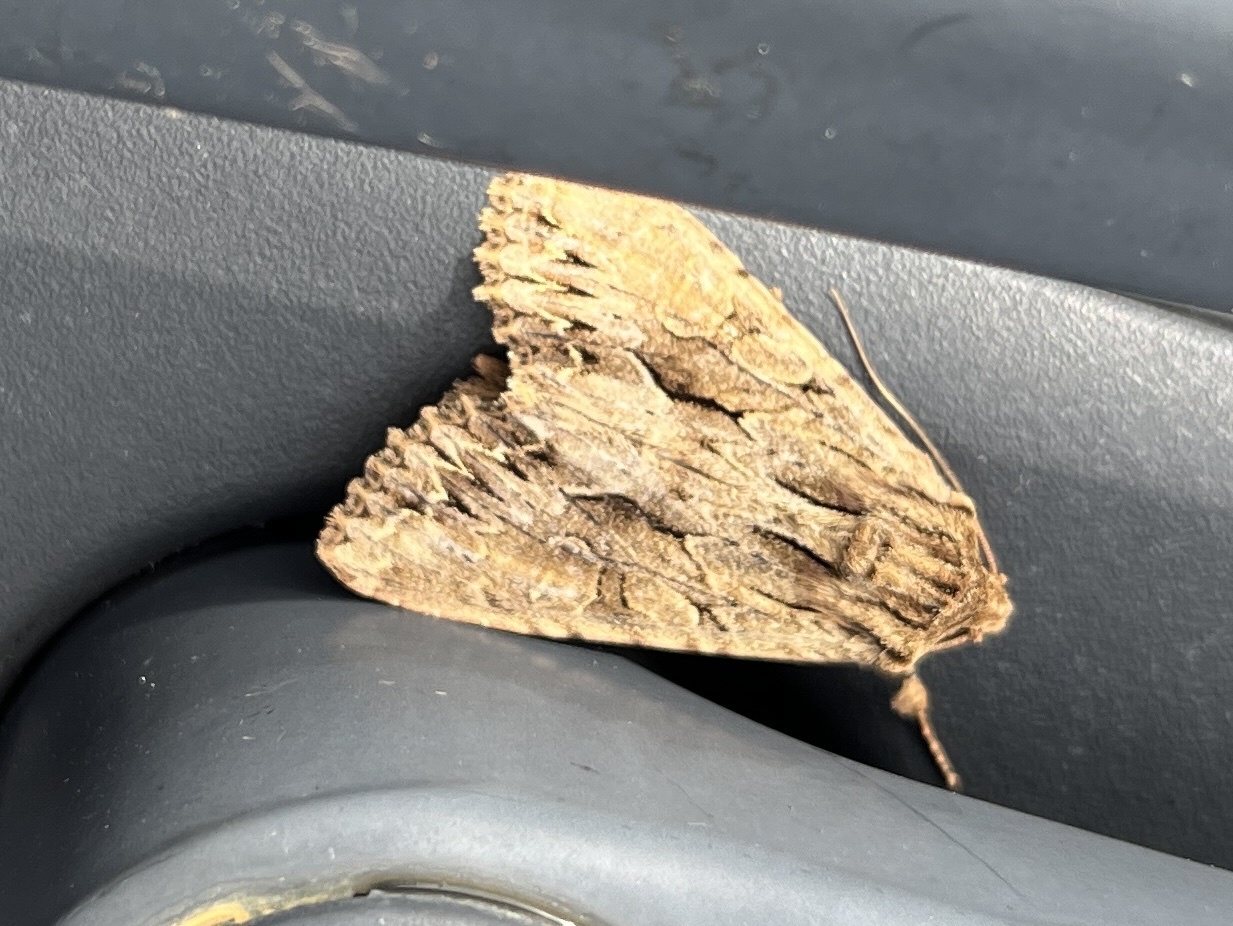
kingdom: Animalia
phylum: Arthropoda
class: Insecta
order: Lepidoptera
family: Noctuidae
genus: Apamea
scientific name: Apamea monoglypha
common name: Dark arches
